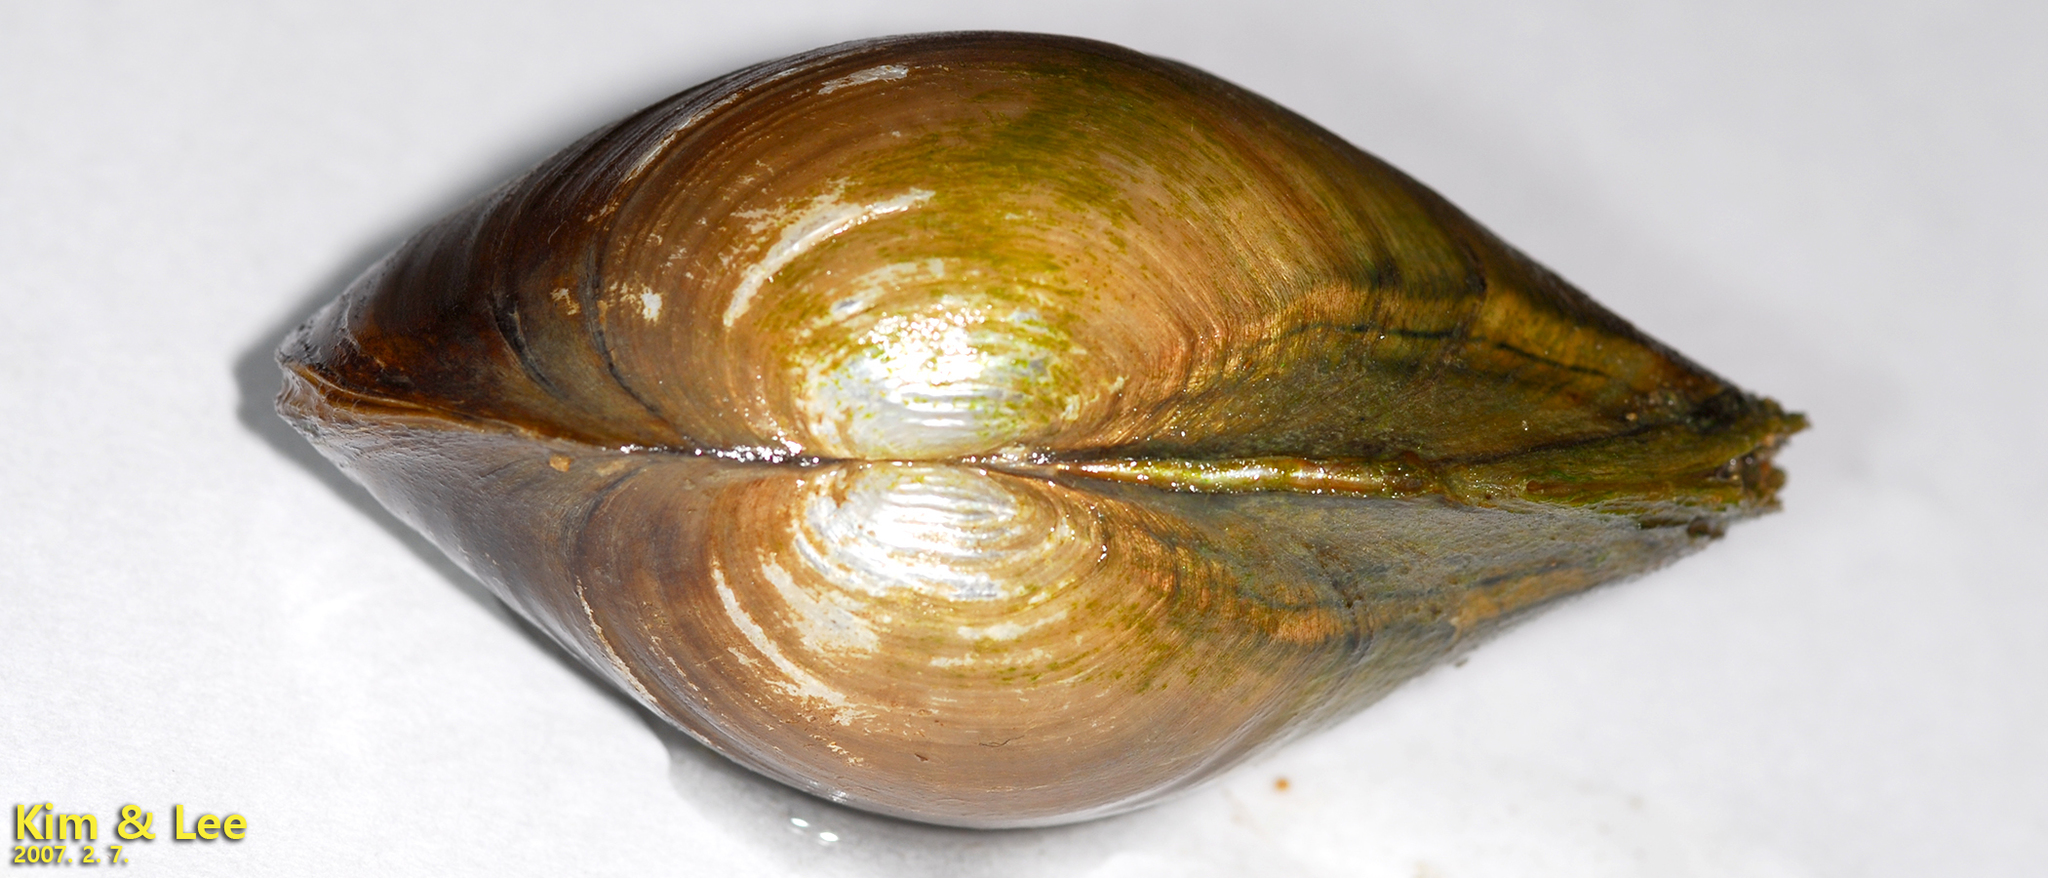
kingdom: Animalia
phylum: Mollusca
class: Bivalvia
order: Unionida
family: Unionidae
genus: Buldowskia
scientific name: Buldowskia shadini
